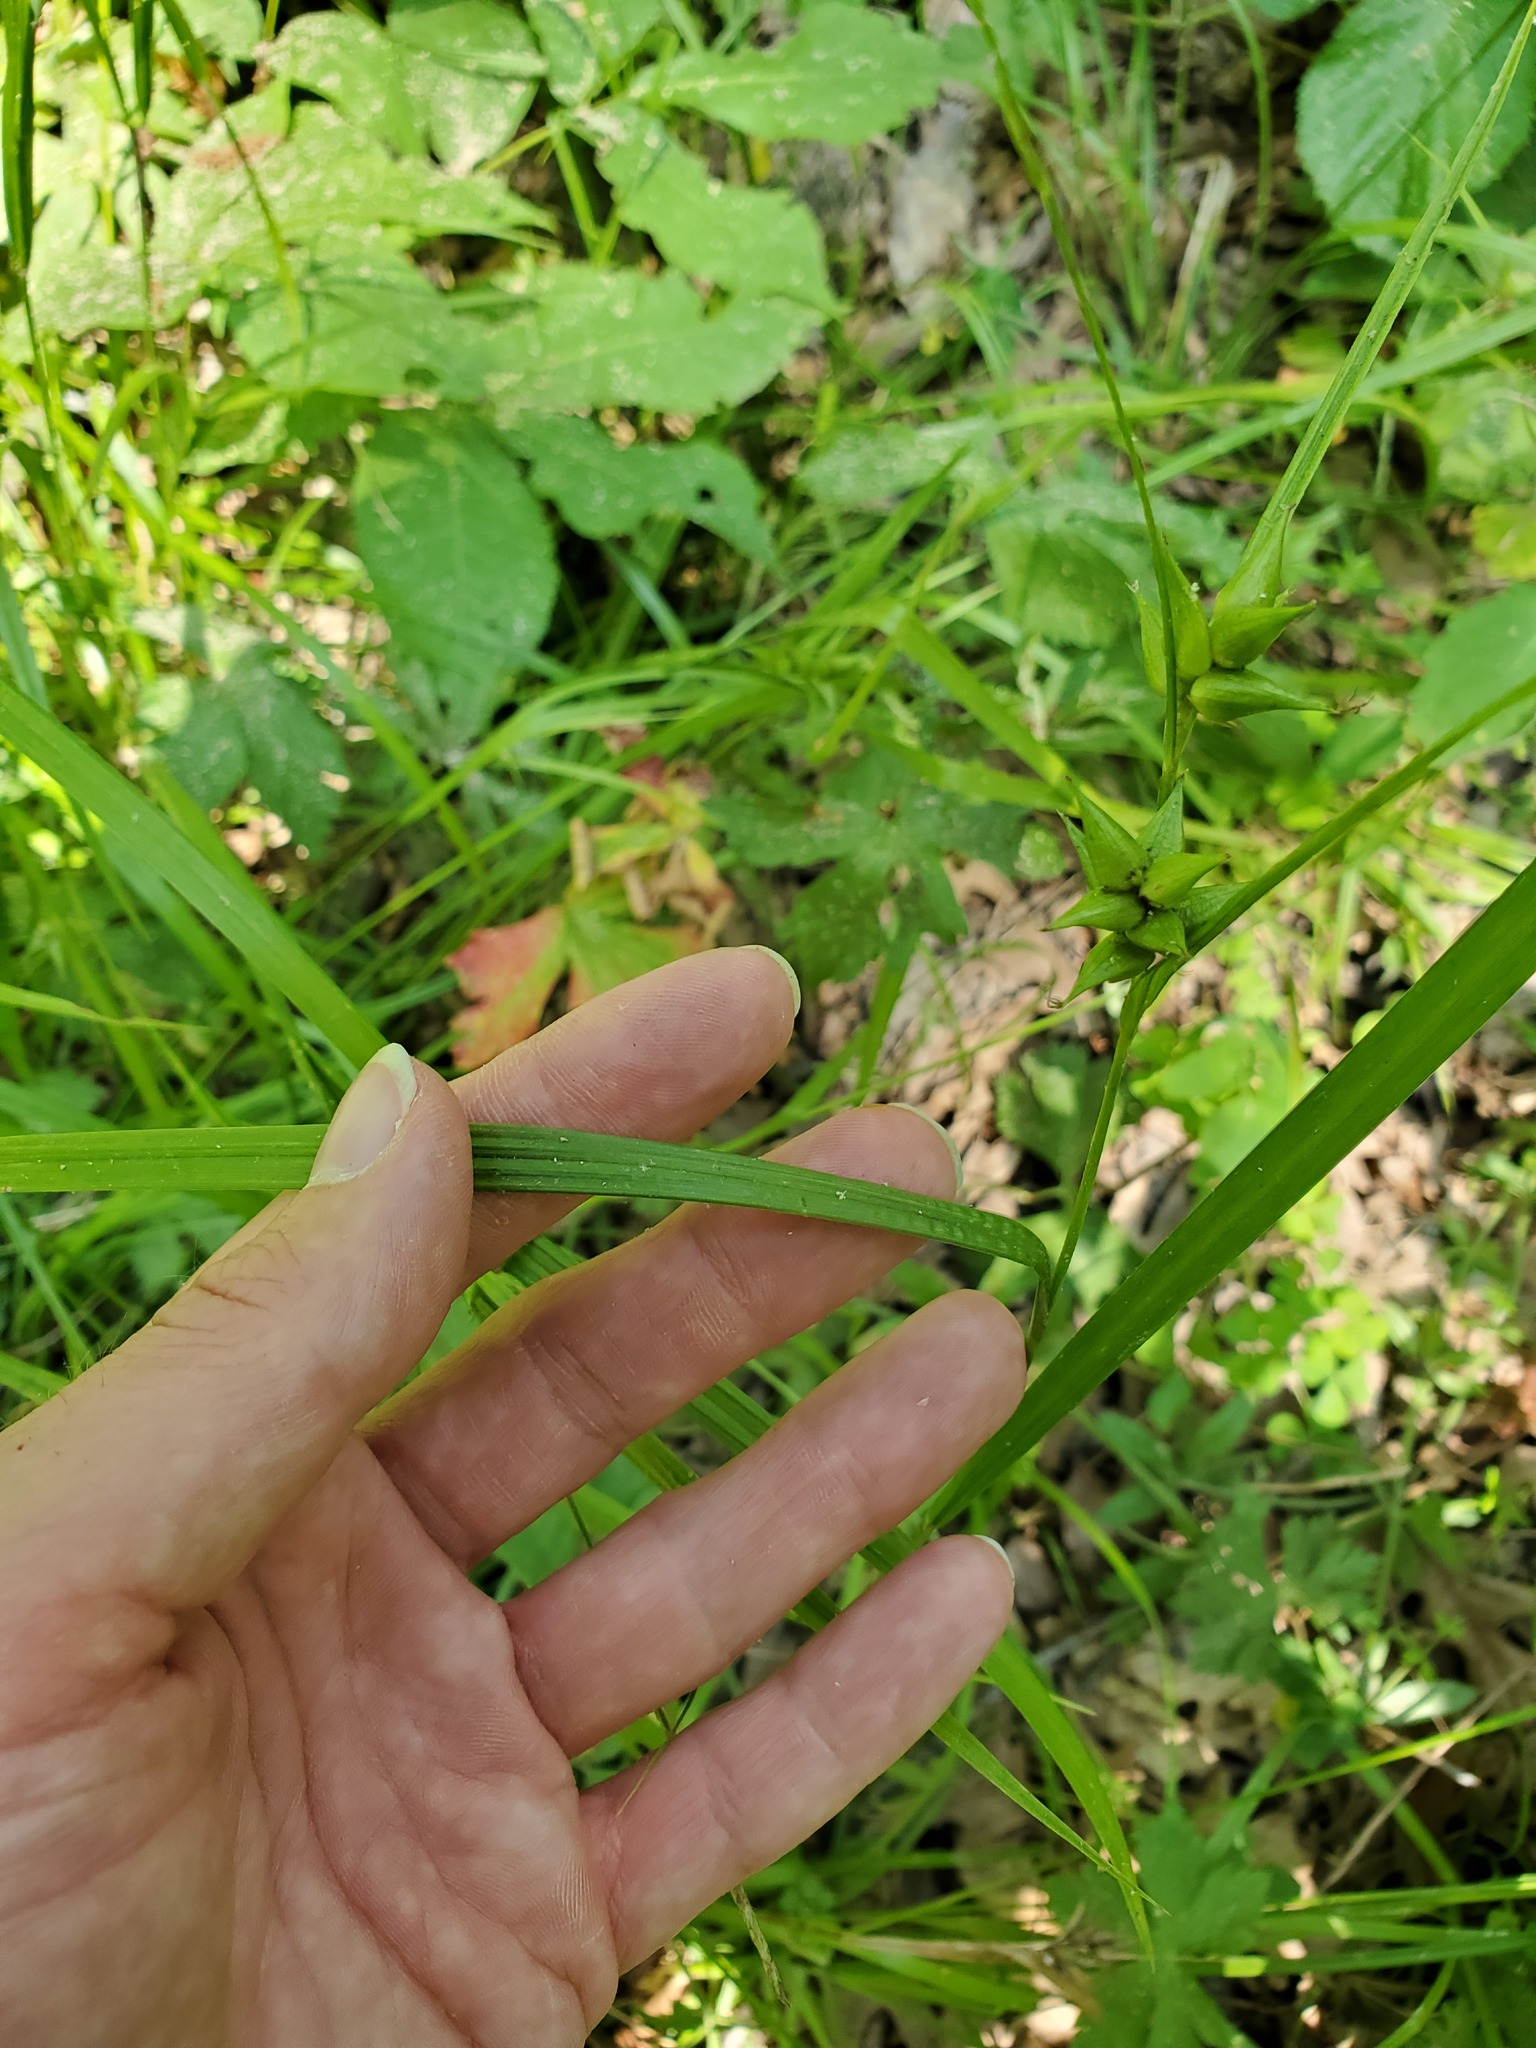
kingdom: Plantae
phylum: Tracheophyta
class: Liliopsida
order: Poales
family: Cyperaceae
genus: Carex
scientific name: Carex intumescens
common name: Greater bladder sedge
